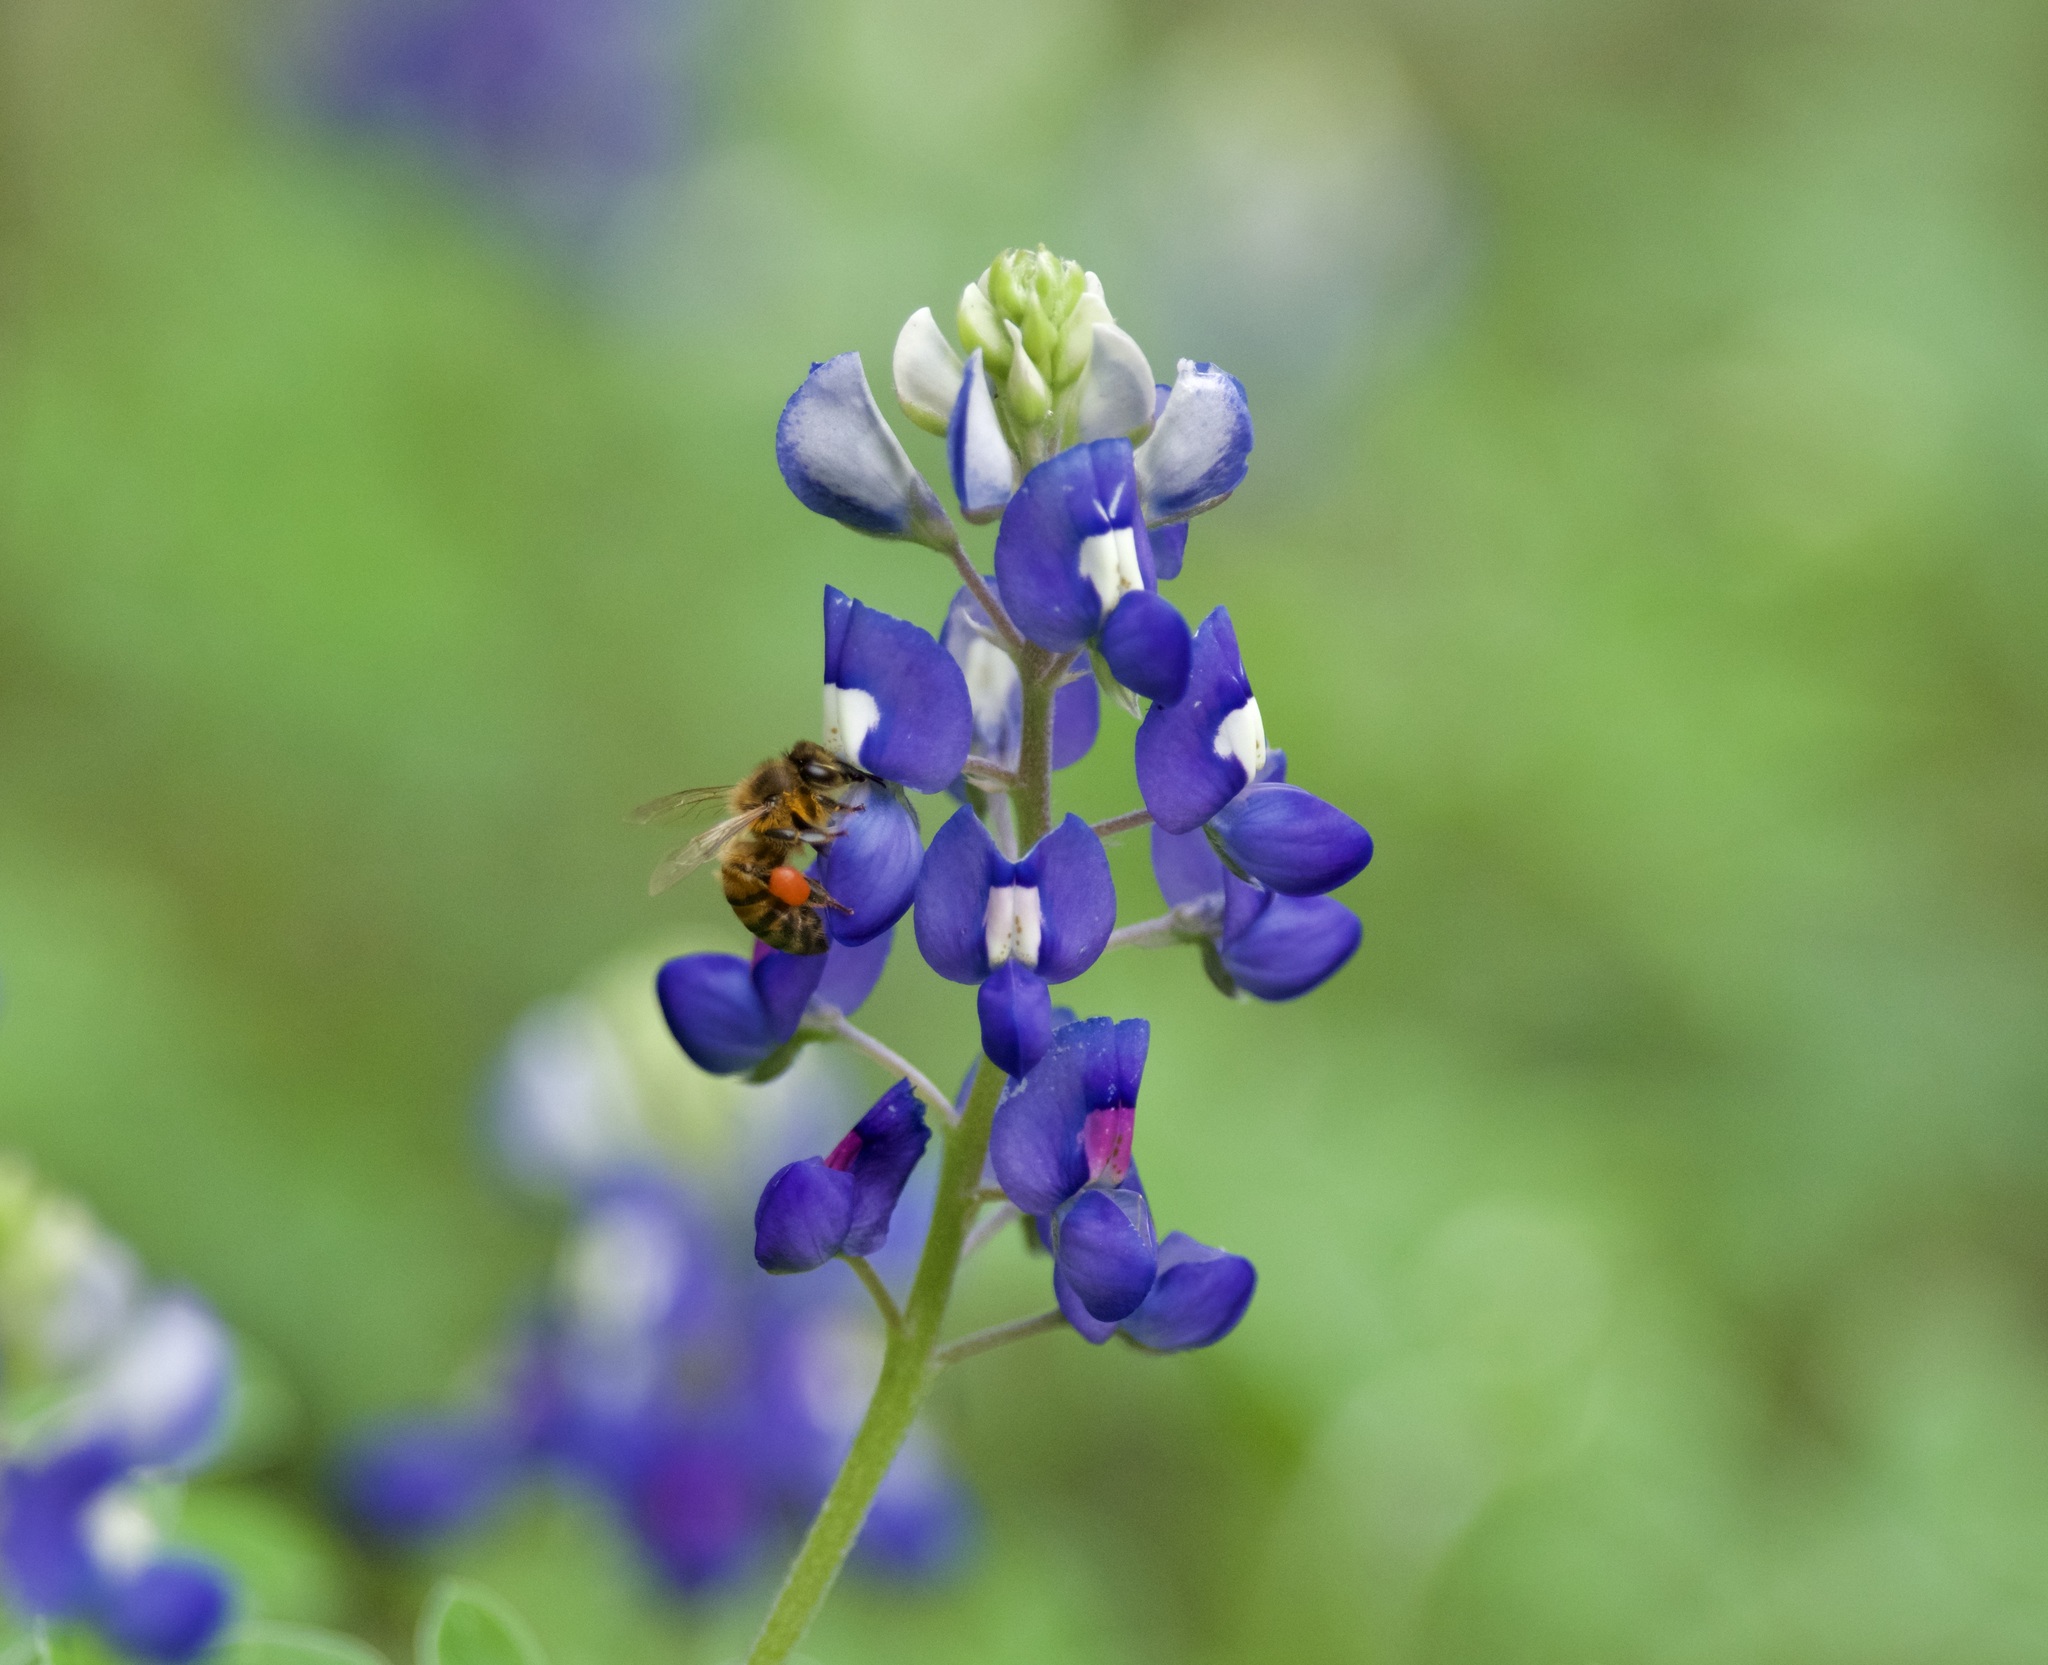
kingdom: Animalia
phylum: Arthropoda
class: Insecta
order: Hymenoptera
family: Apidae
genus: Apis
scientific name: Apis mellifera
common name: Honey bee
